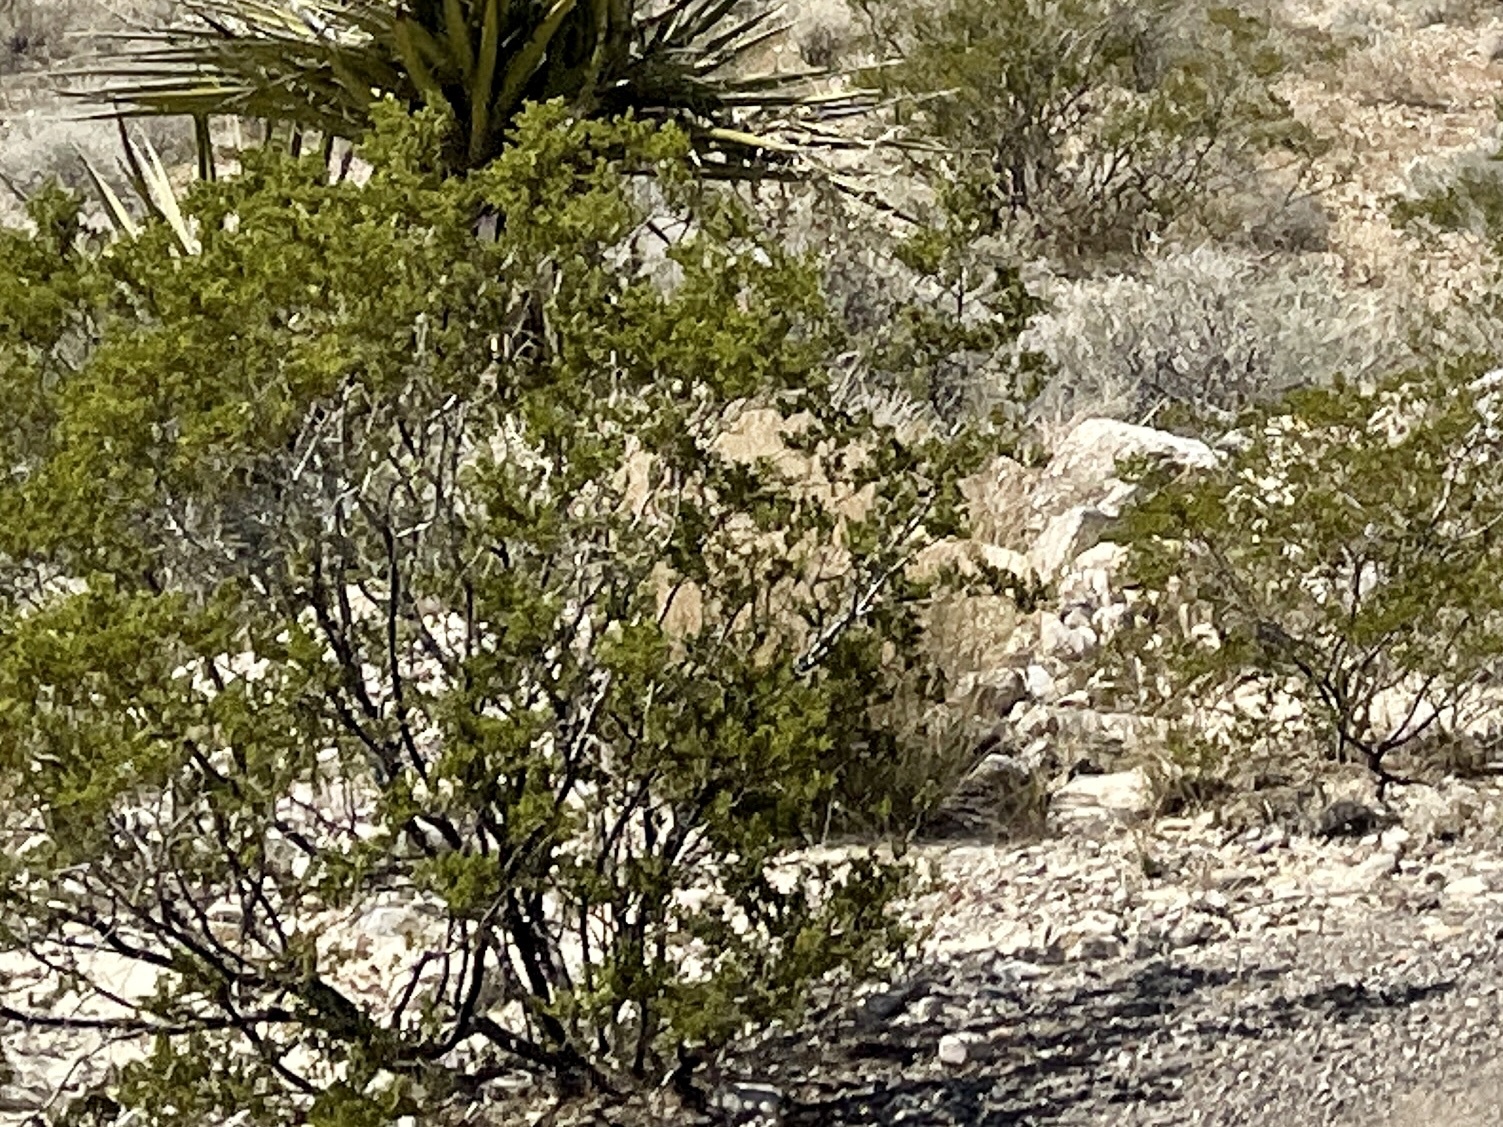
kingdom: Plantae
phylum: Tracheophyta
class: Magnoliopsida
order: Zygophyllales
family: Zygophyllaceae
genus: Larrea
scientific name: Larrea tridentata
